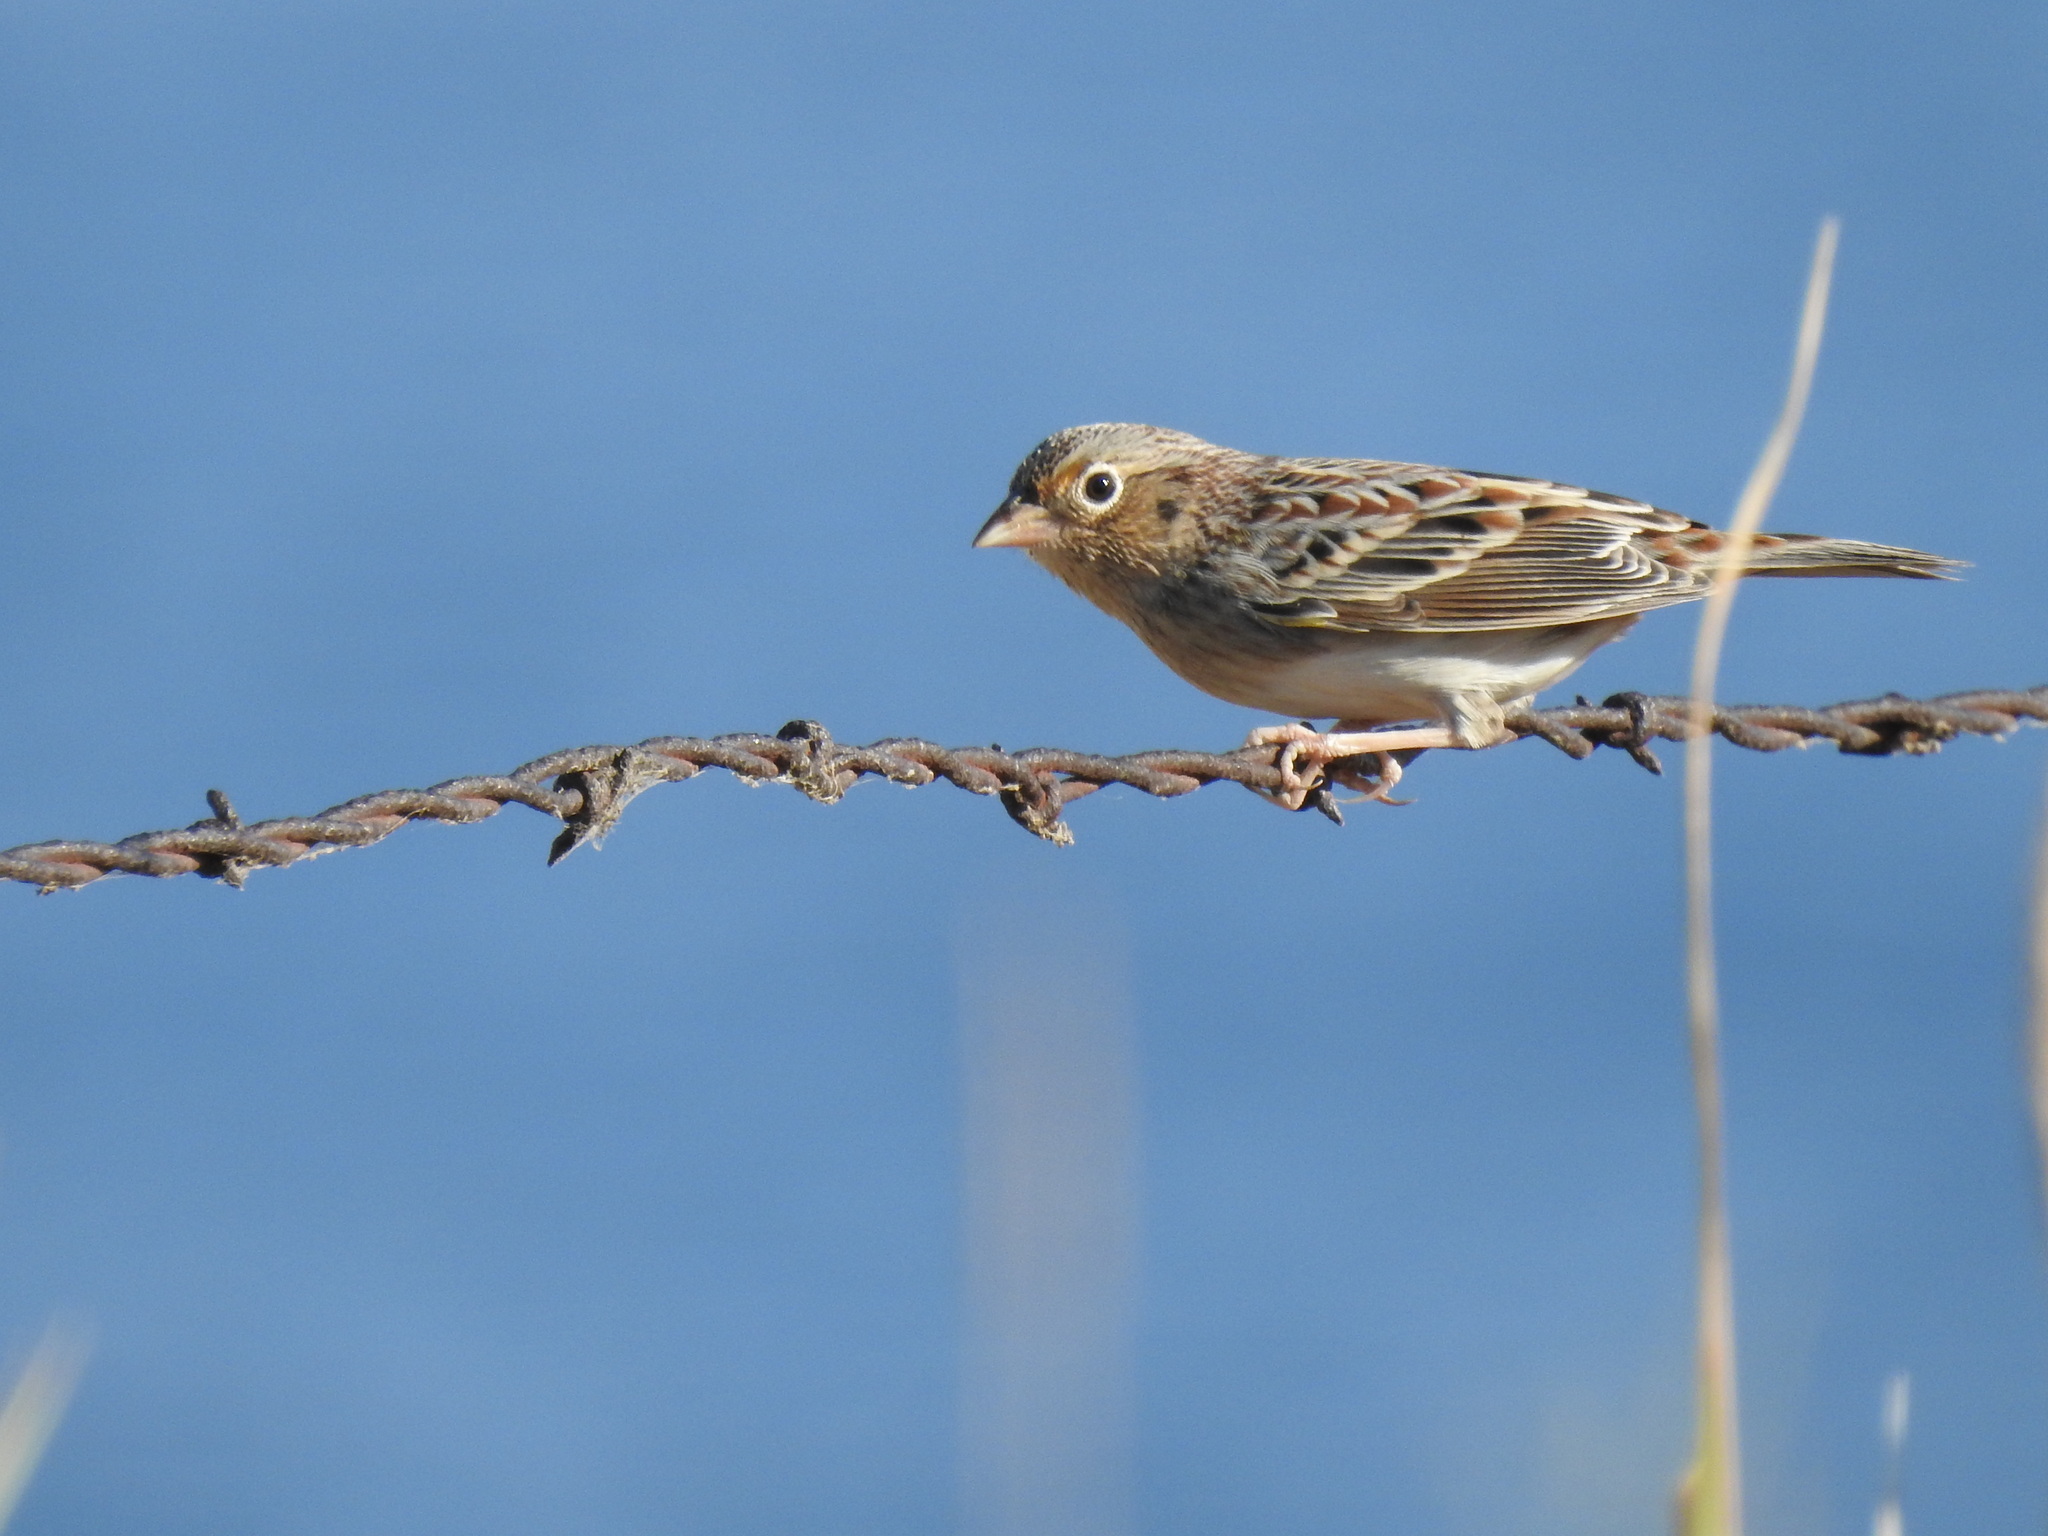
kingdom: Animalia
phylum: Chordata
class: Aves
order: Passeriformes
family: Passerellidae
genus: Ammodramus
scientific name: Ammodramus savannarum
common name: Grasshopper sparrow
